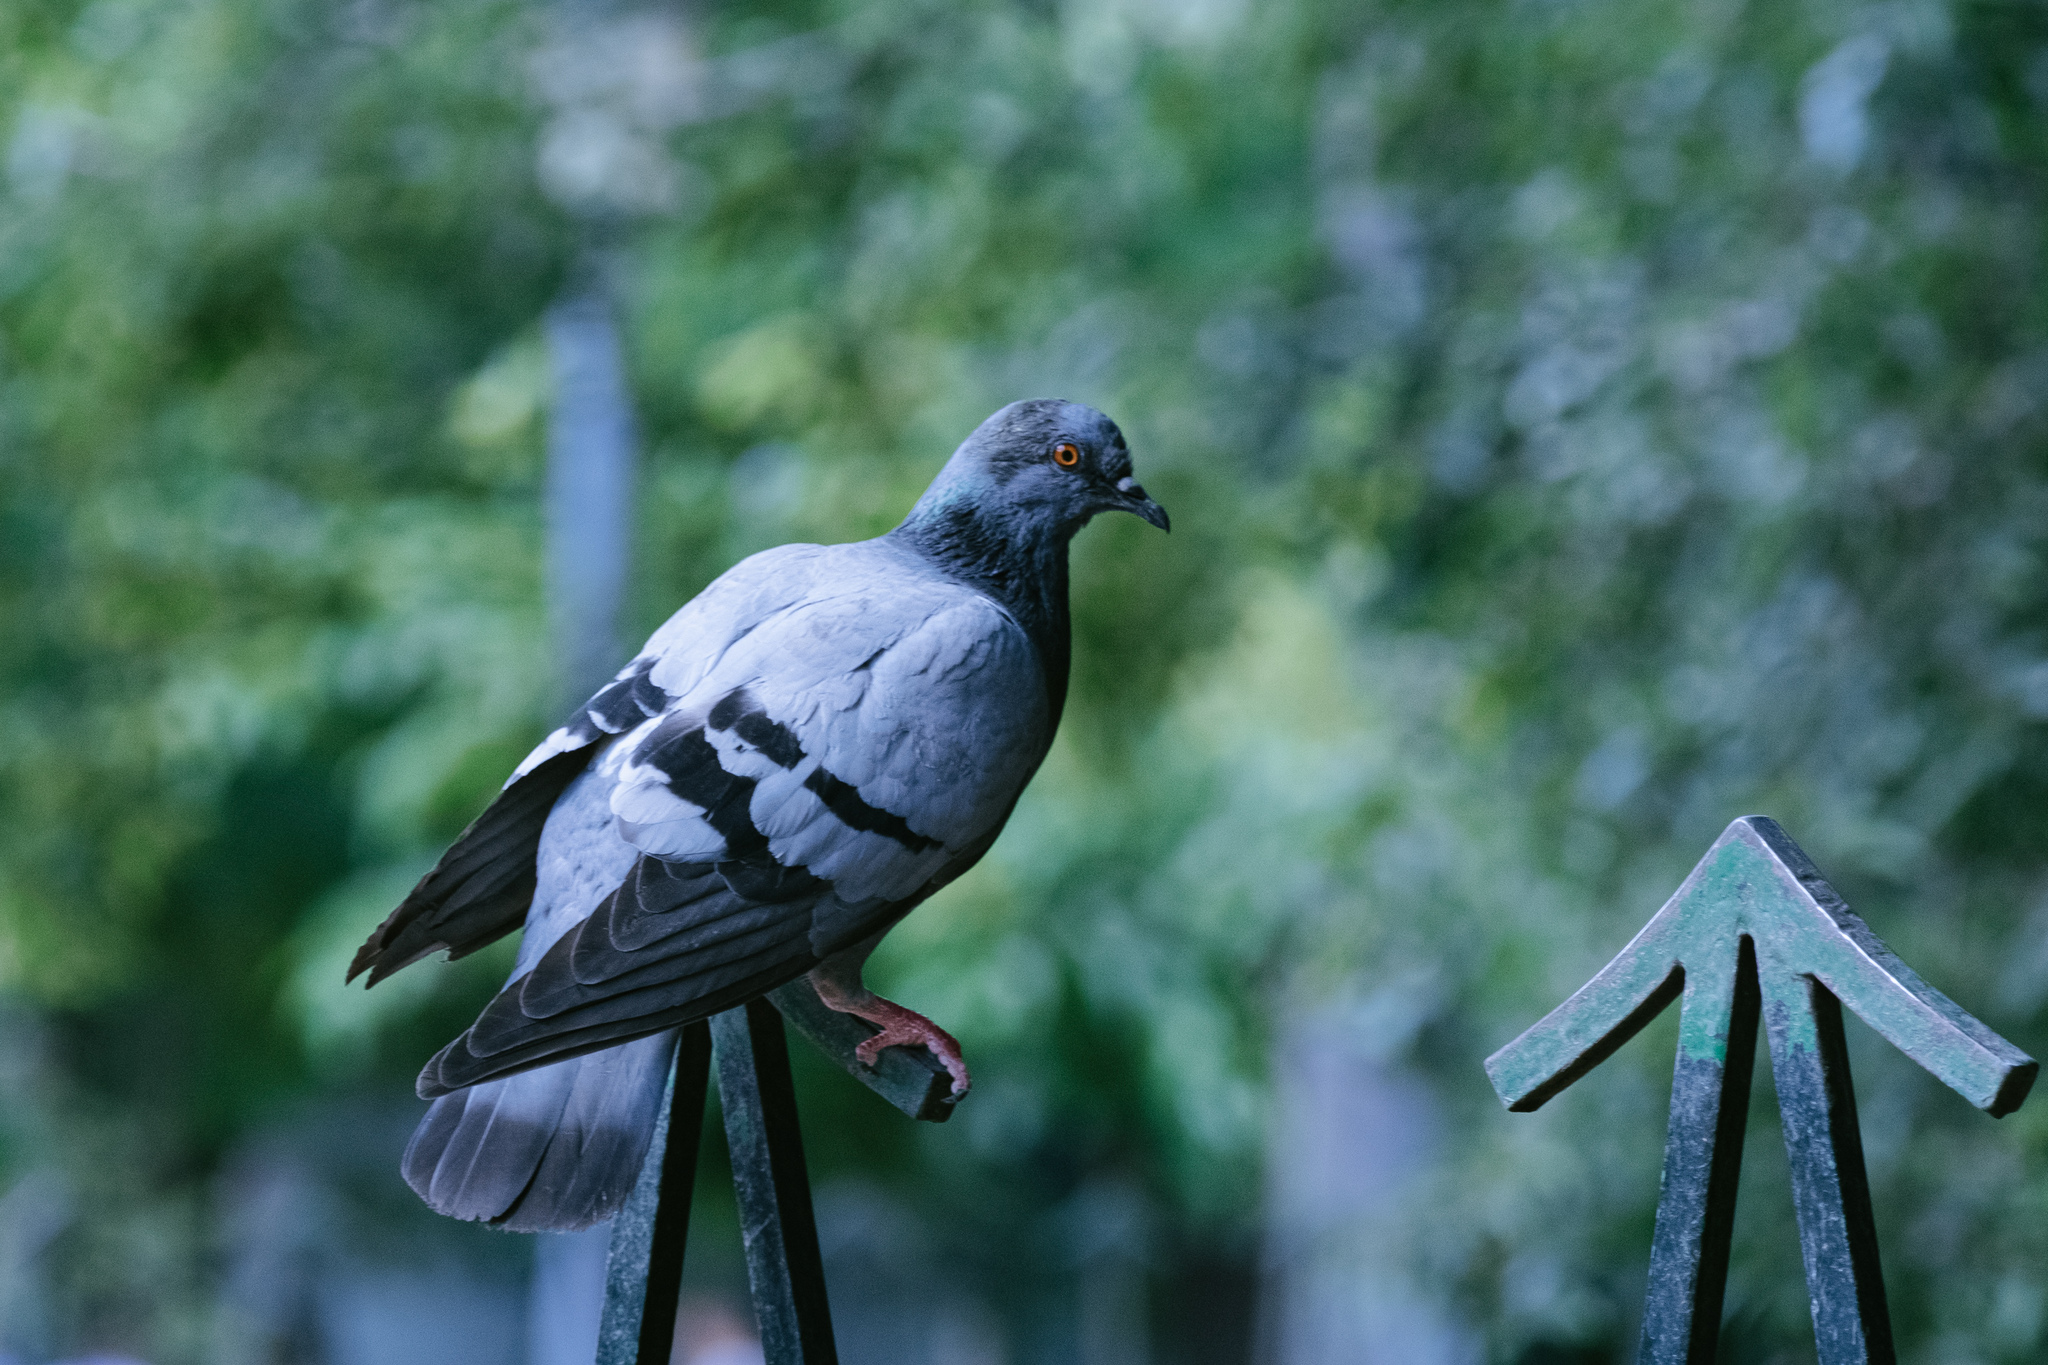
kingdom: Animalia
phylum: Chordata
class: Aves
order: Columbiformes
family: Columbidae
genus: Columba
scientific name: Columba livia
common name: Rock pigeon
